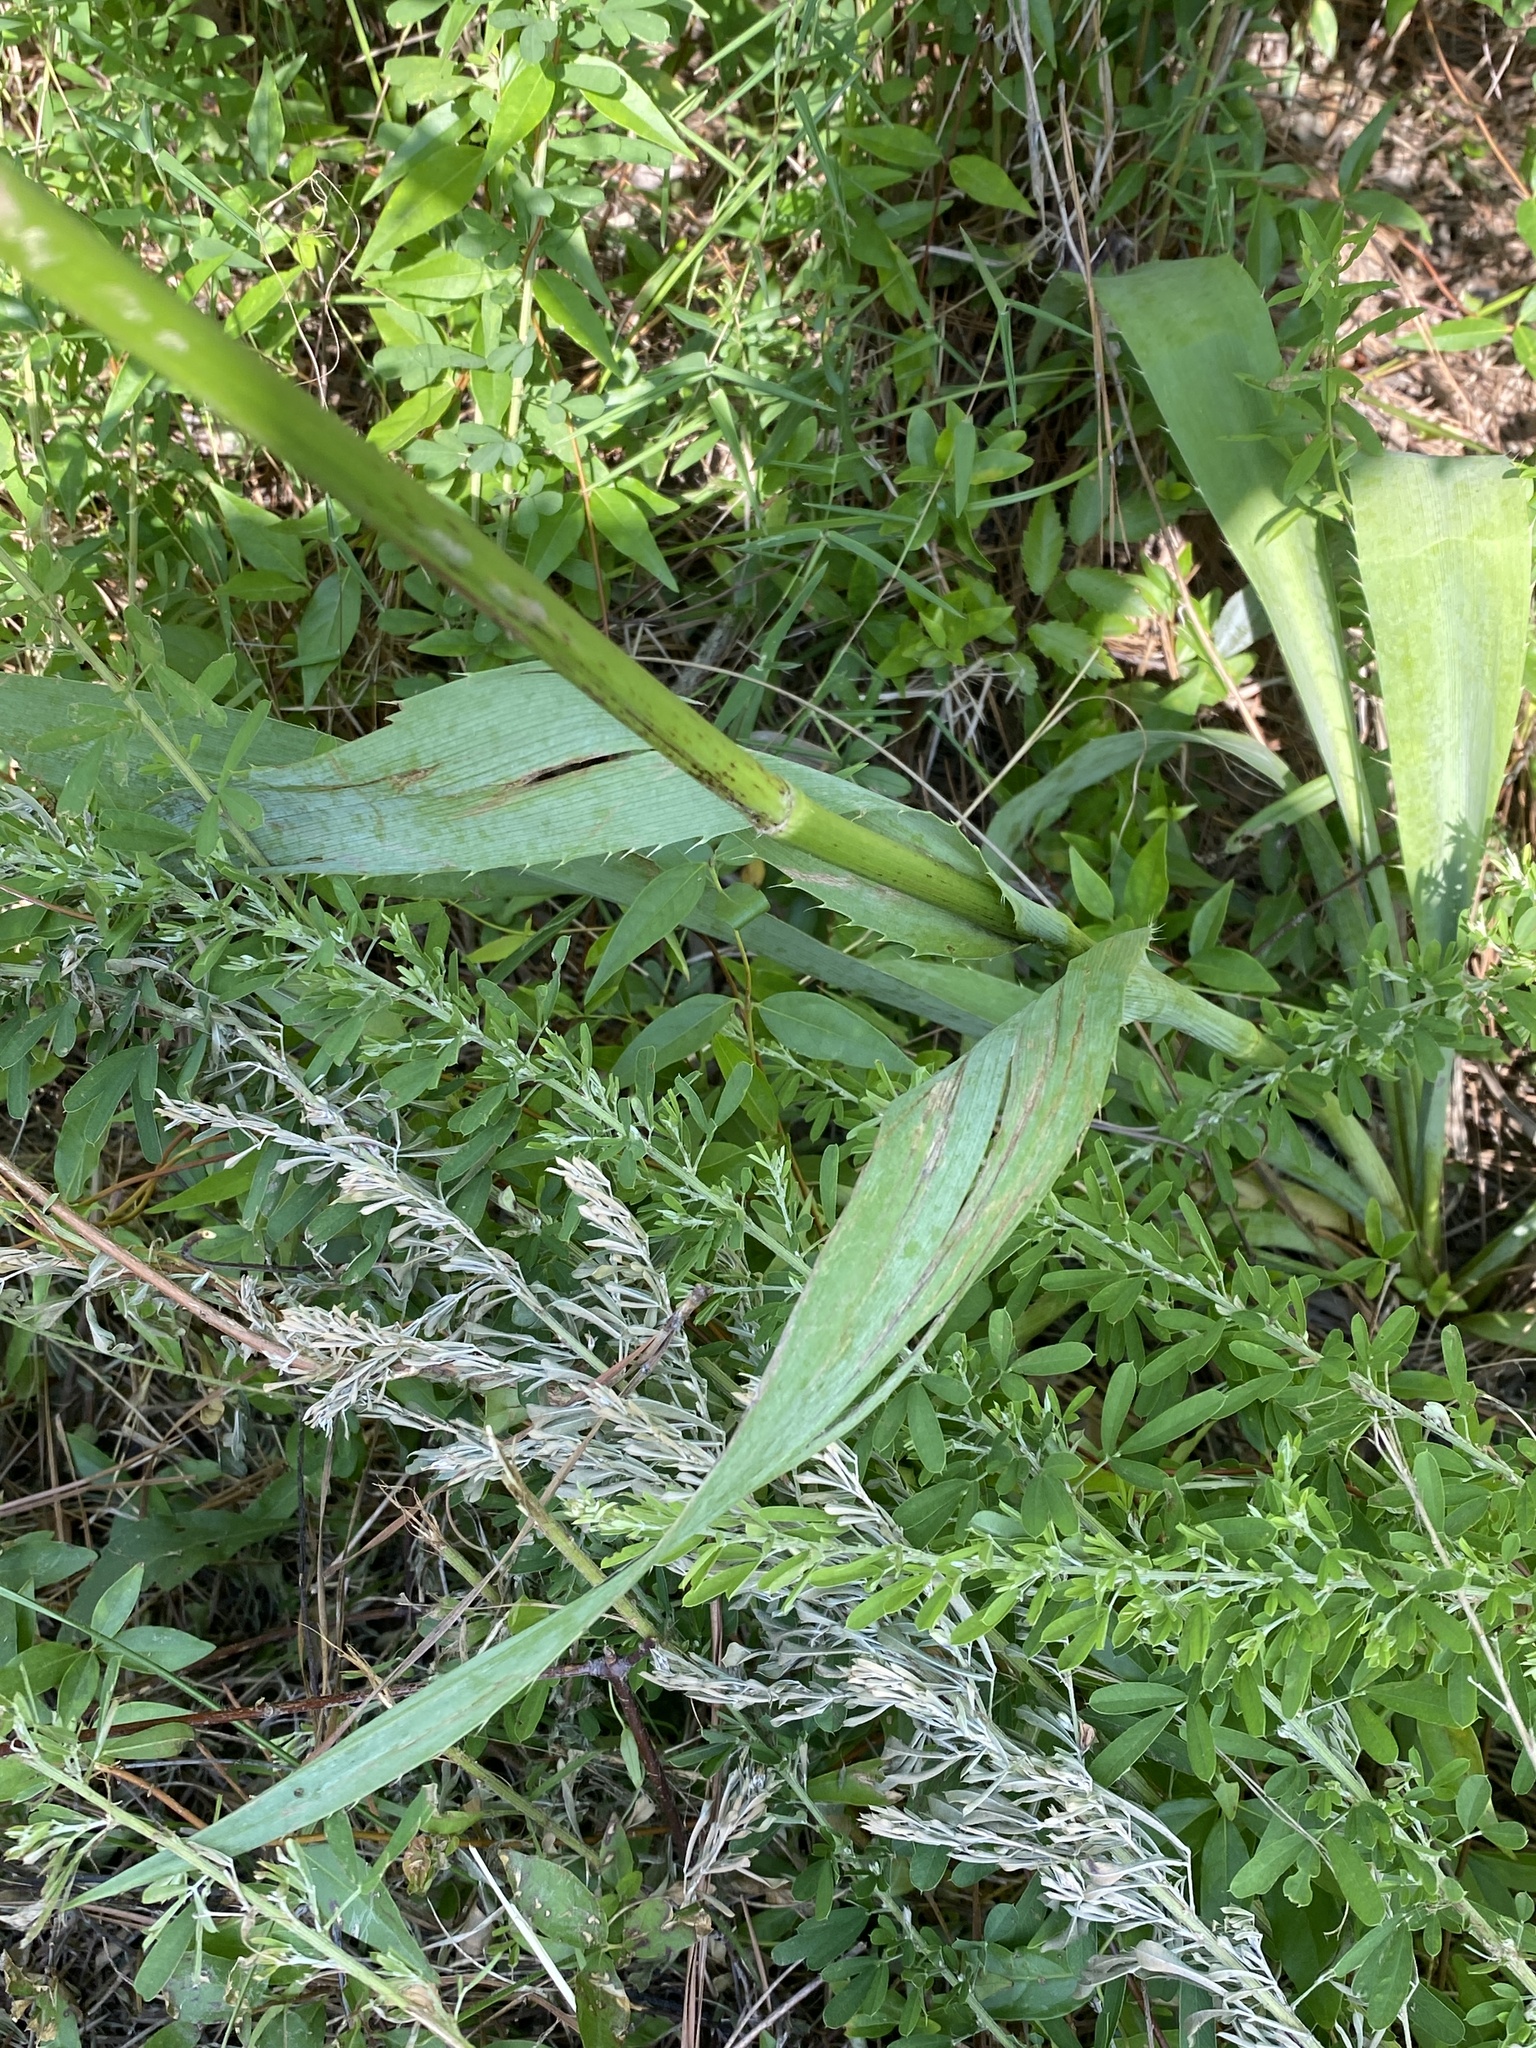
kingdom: Plantae
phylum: Tracheophyta
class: Magnoliopsida
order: Apiales
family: Apiaceae
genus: Eryngium
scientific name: Eryngium yuccifolium
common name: Button eryngo
